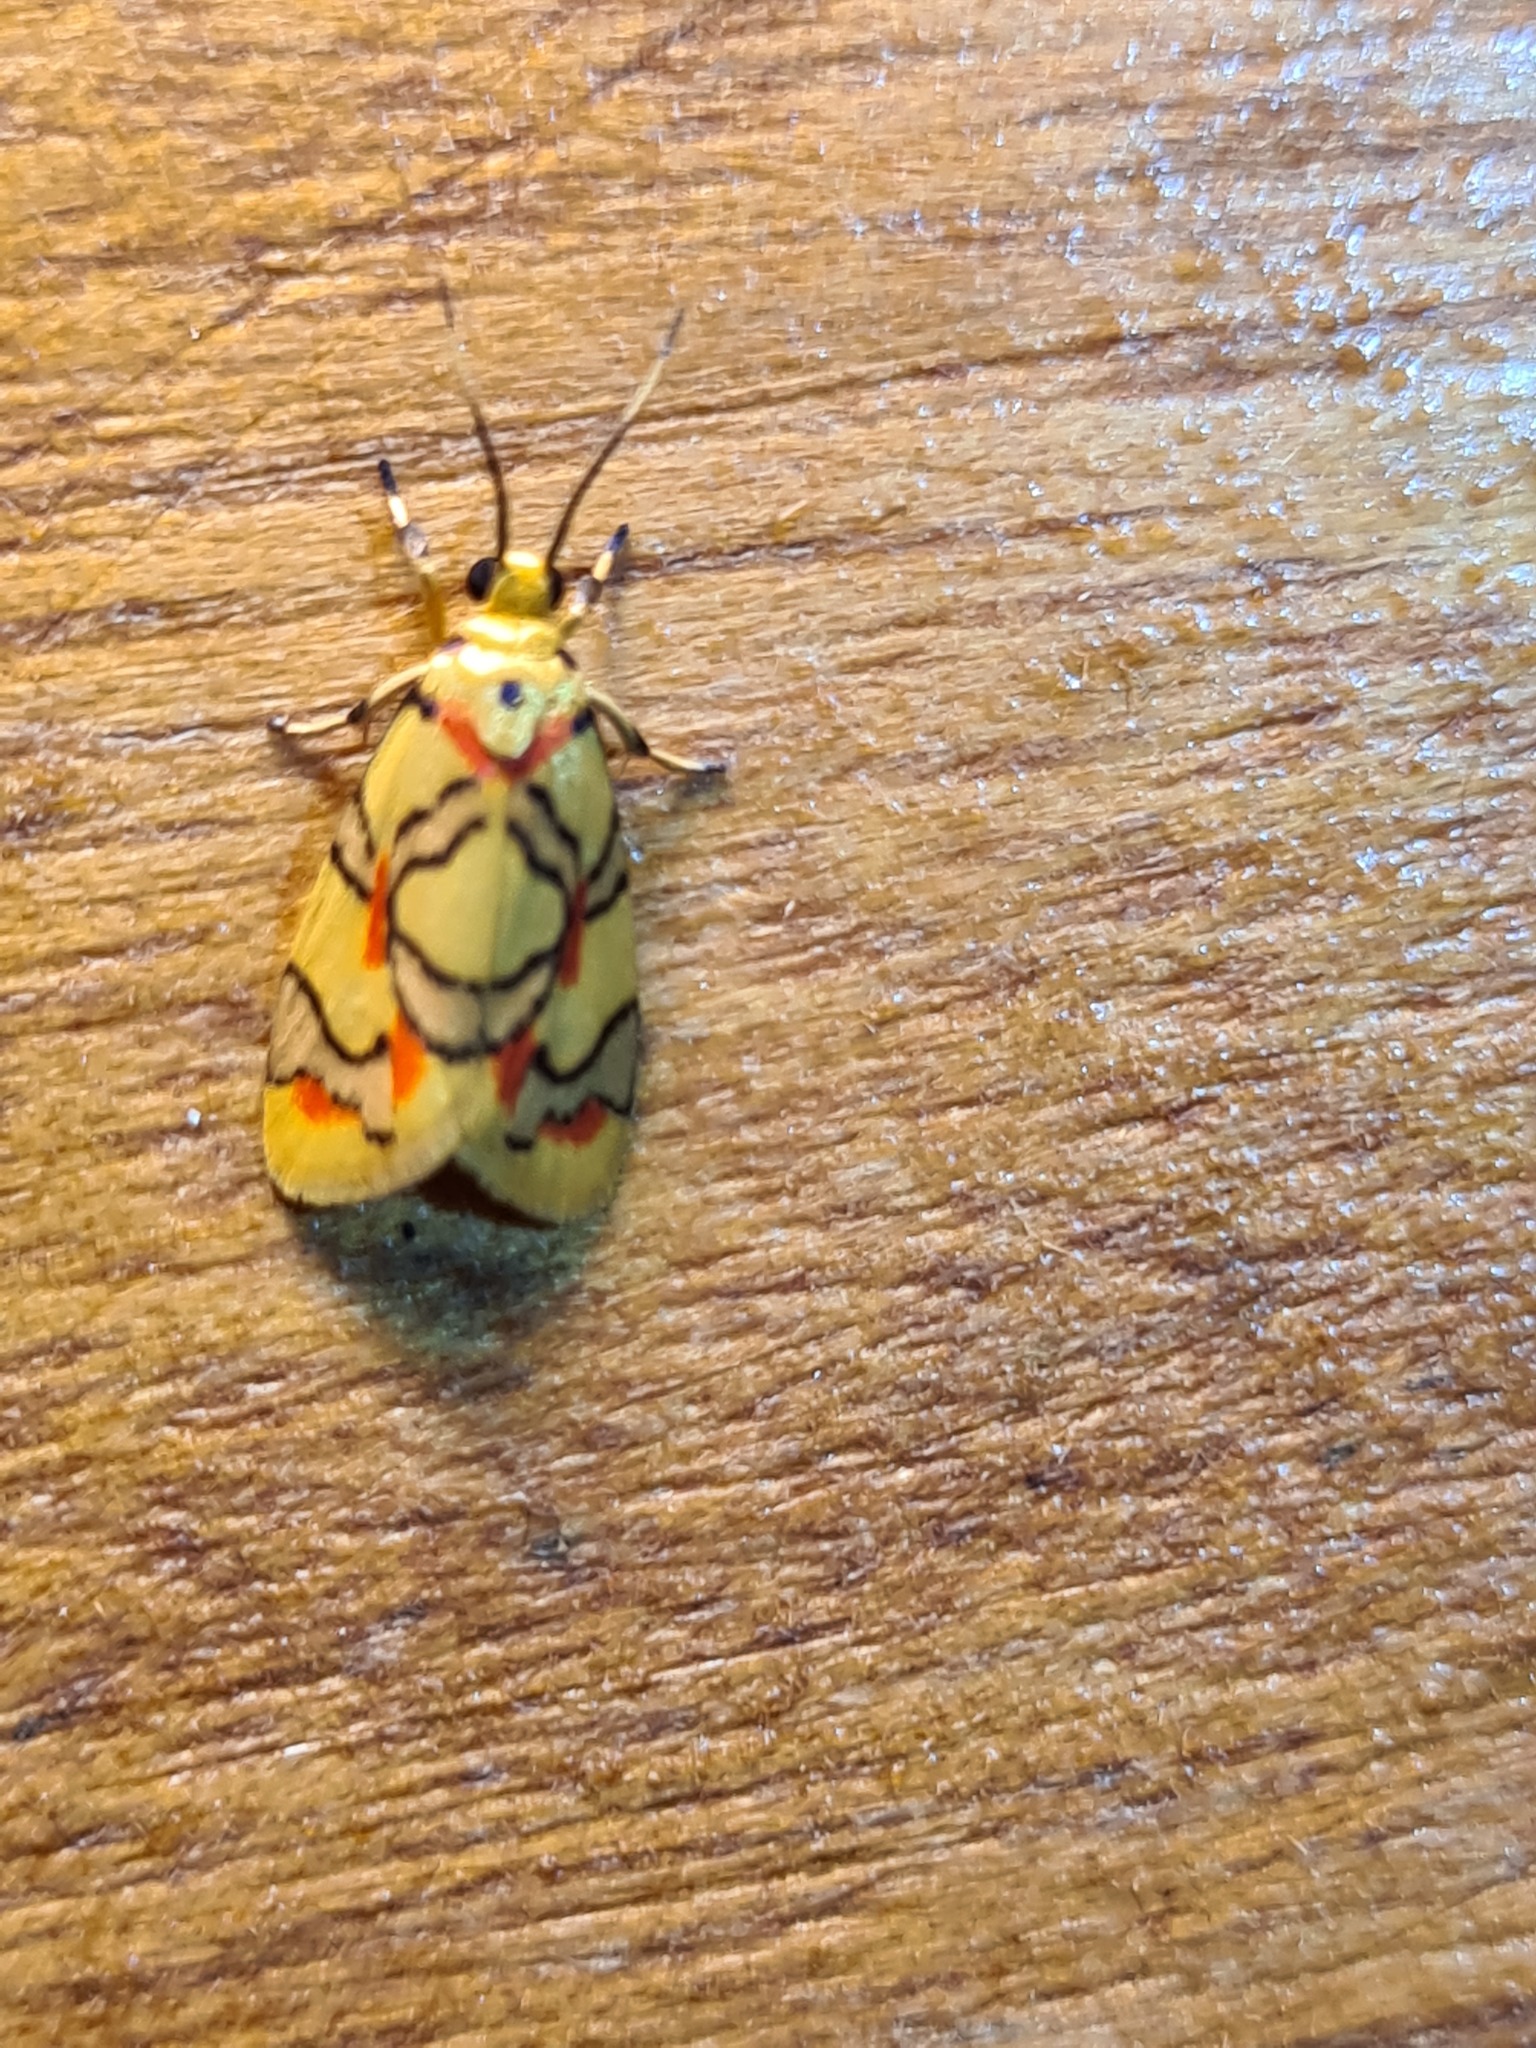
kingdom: Animalia
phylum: Arthropoda
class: Insecta
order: Lepidoptera
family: Erebidae
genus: Nodozana
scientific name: Nodozana
